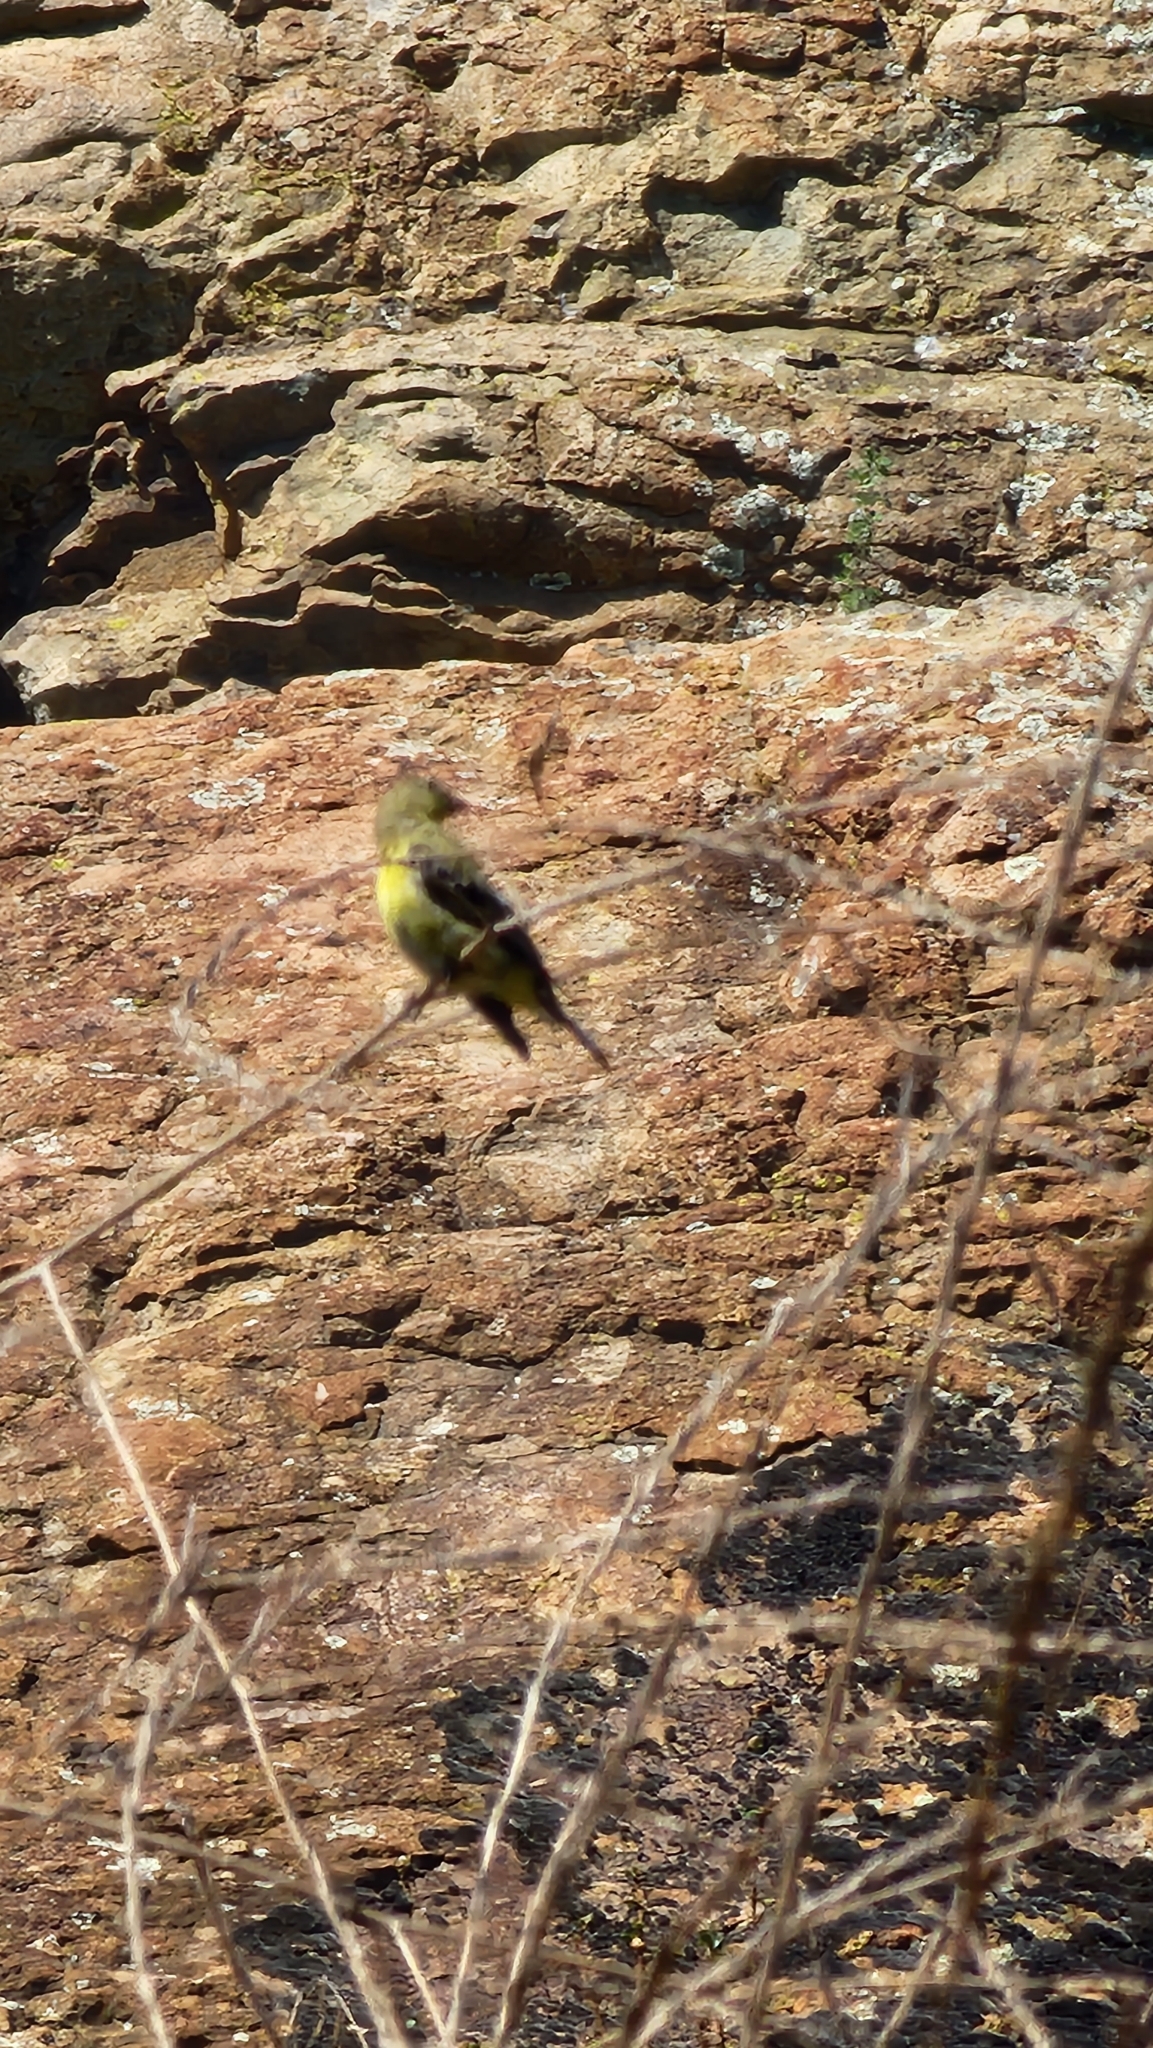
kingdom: Animalia
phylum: Chordata
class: Aves
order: Passeriformes
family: Fringillidae
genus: Spinus
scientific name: Spinus psaltria
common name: Lesser goldfinch
